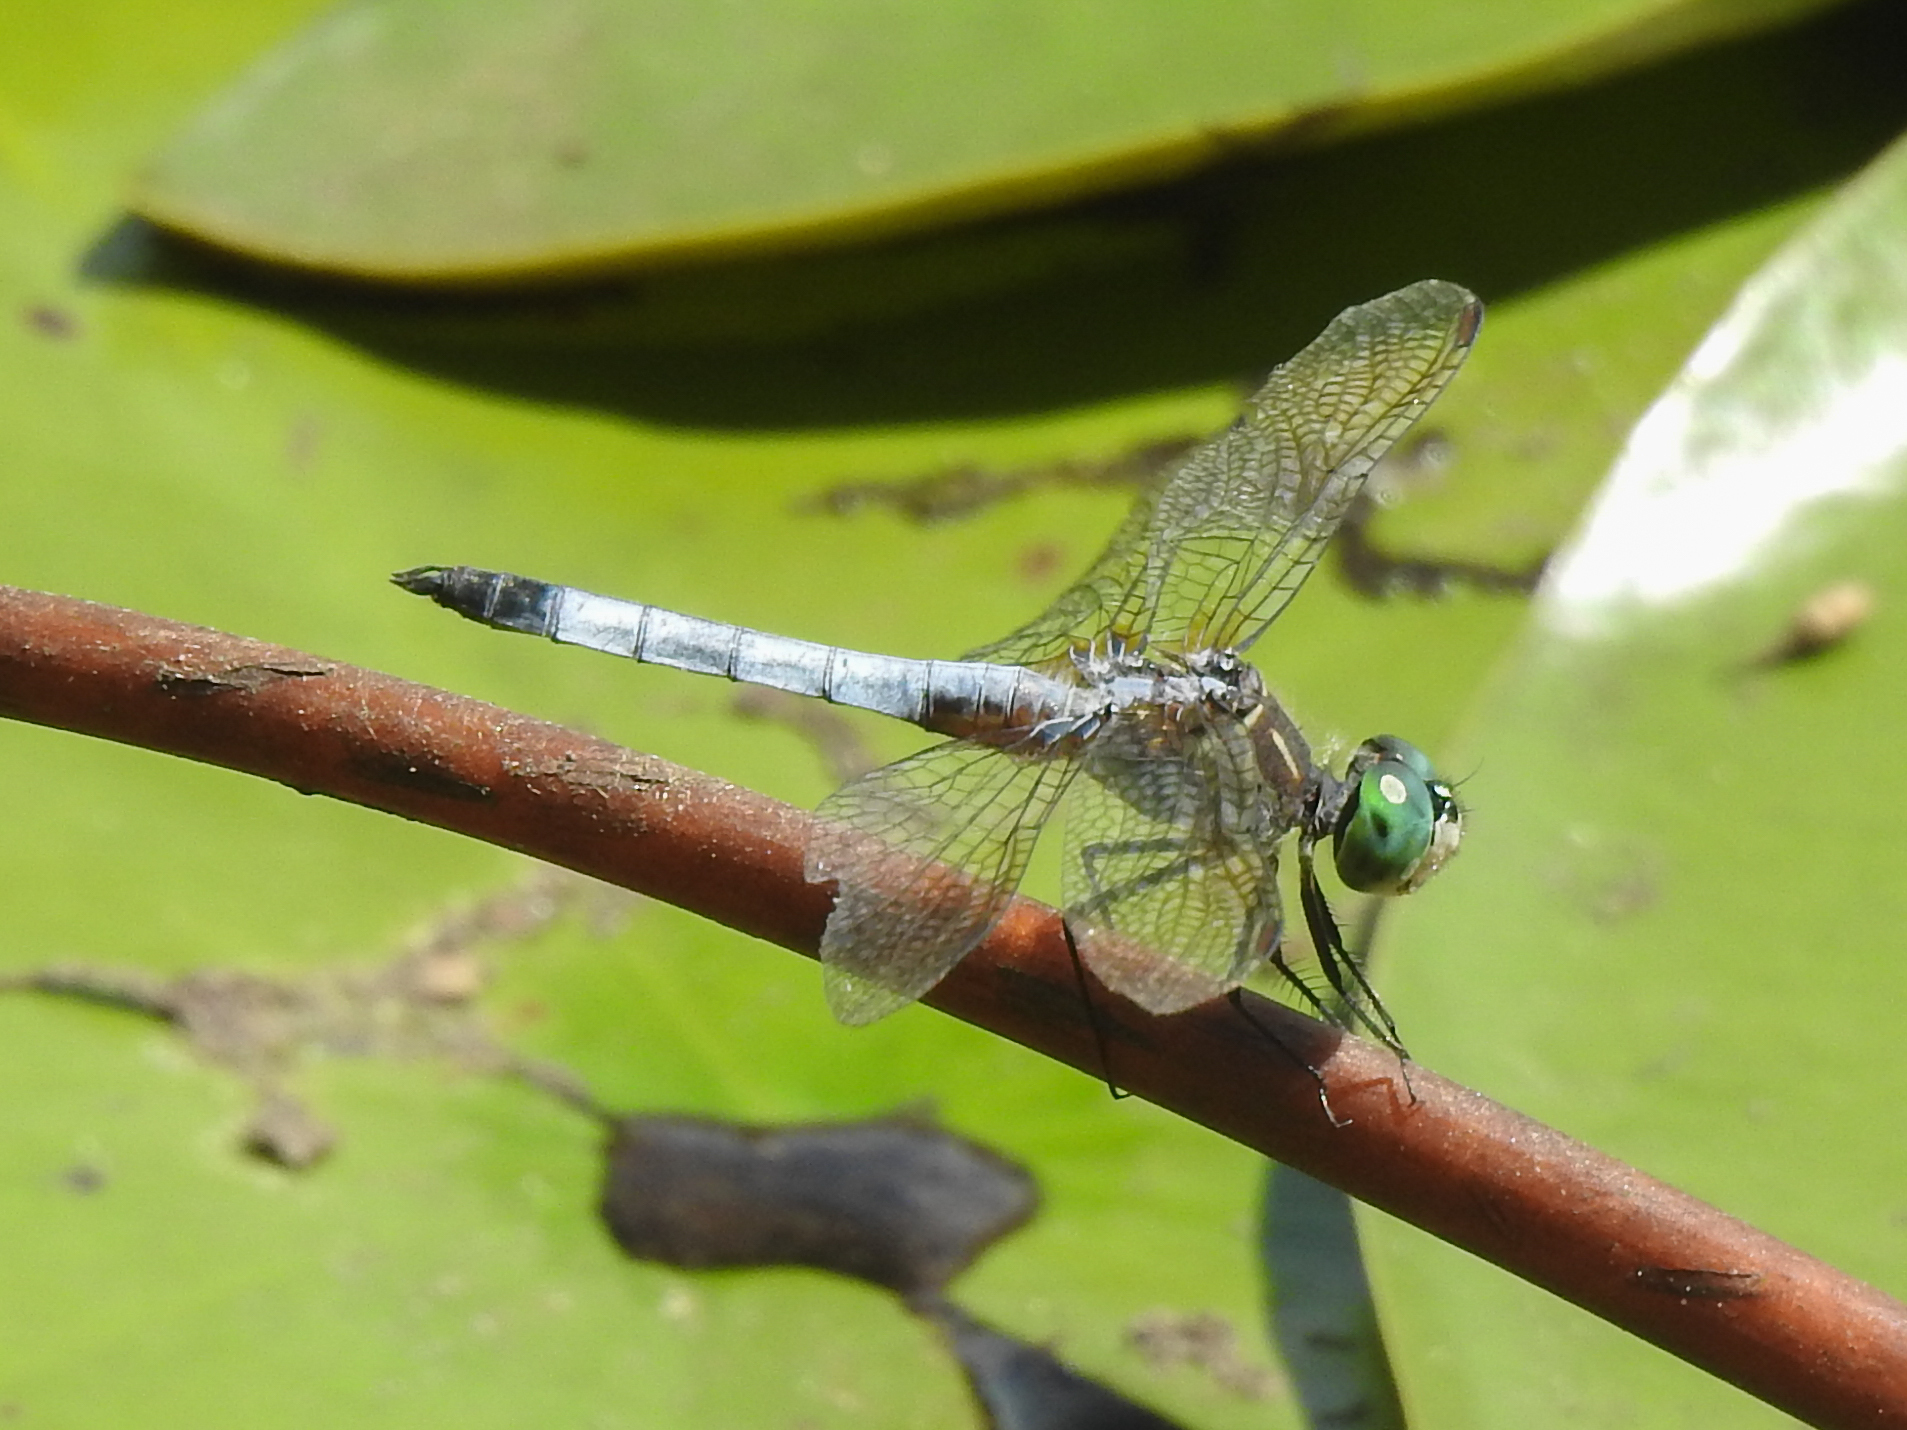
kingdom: Animalia
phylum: Arthropoda
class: Insecta
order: Odonata
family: Libellulidae
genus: Pachydiplax
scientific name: Pachydiplax longipennis
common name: Blue dasher
